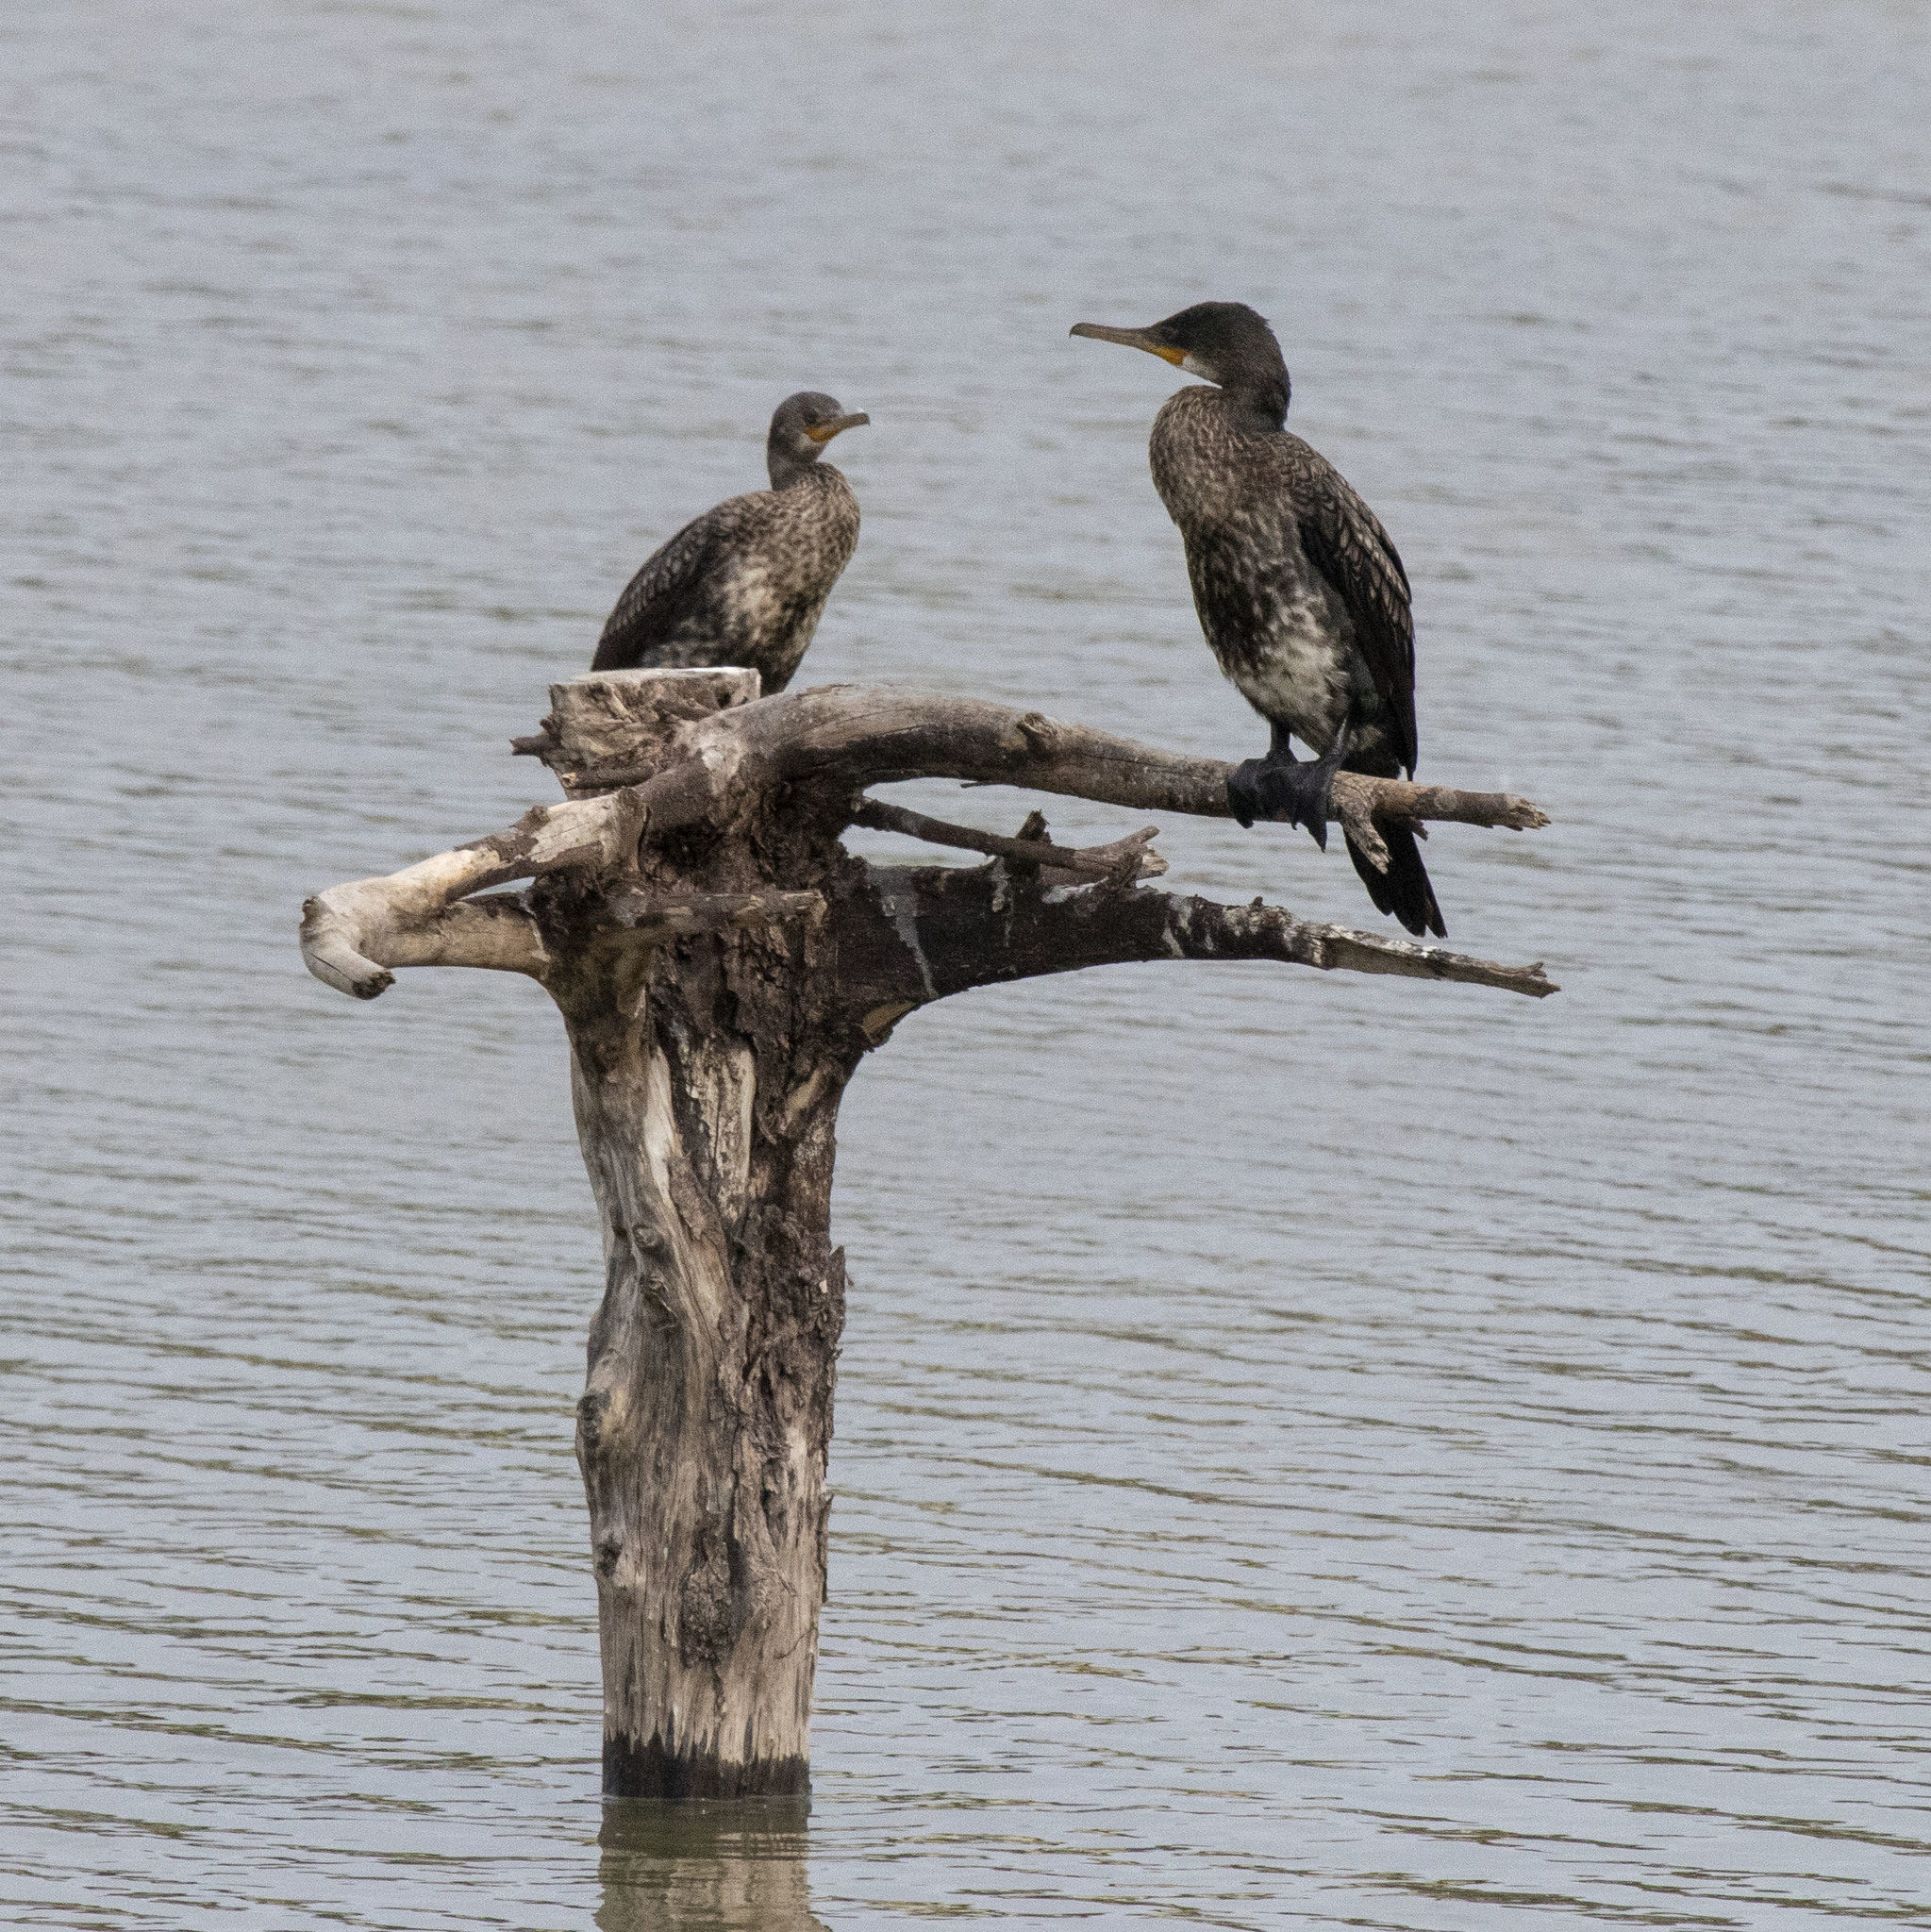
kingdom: Animalia
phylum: Chordata
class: Aves
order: Suliformes
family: Phalacrocoracidae
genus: Phalacrocorax
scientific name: Phalacrocorax fuscicollis
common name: Indian cormorant
